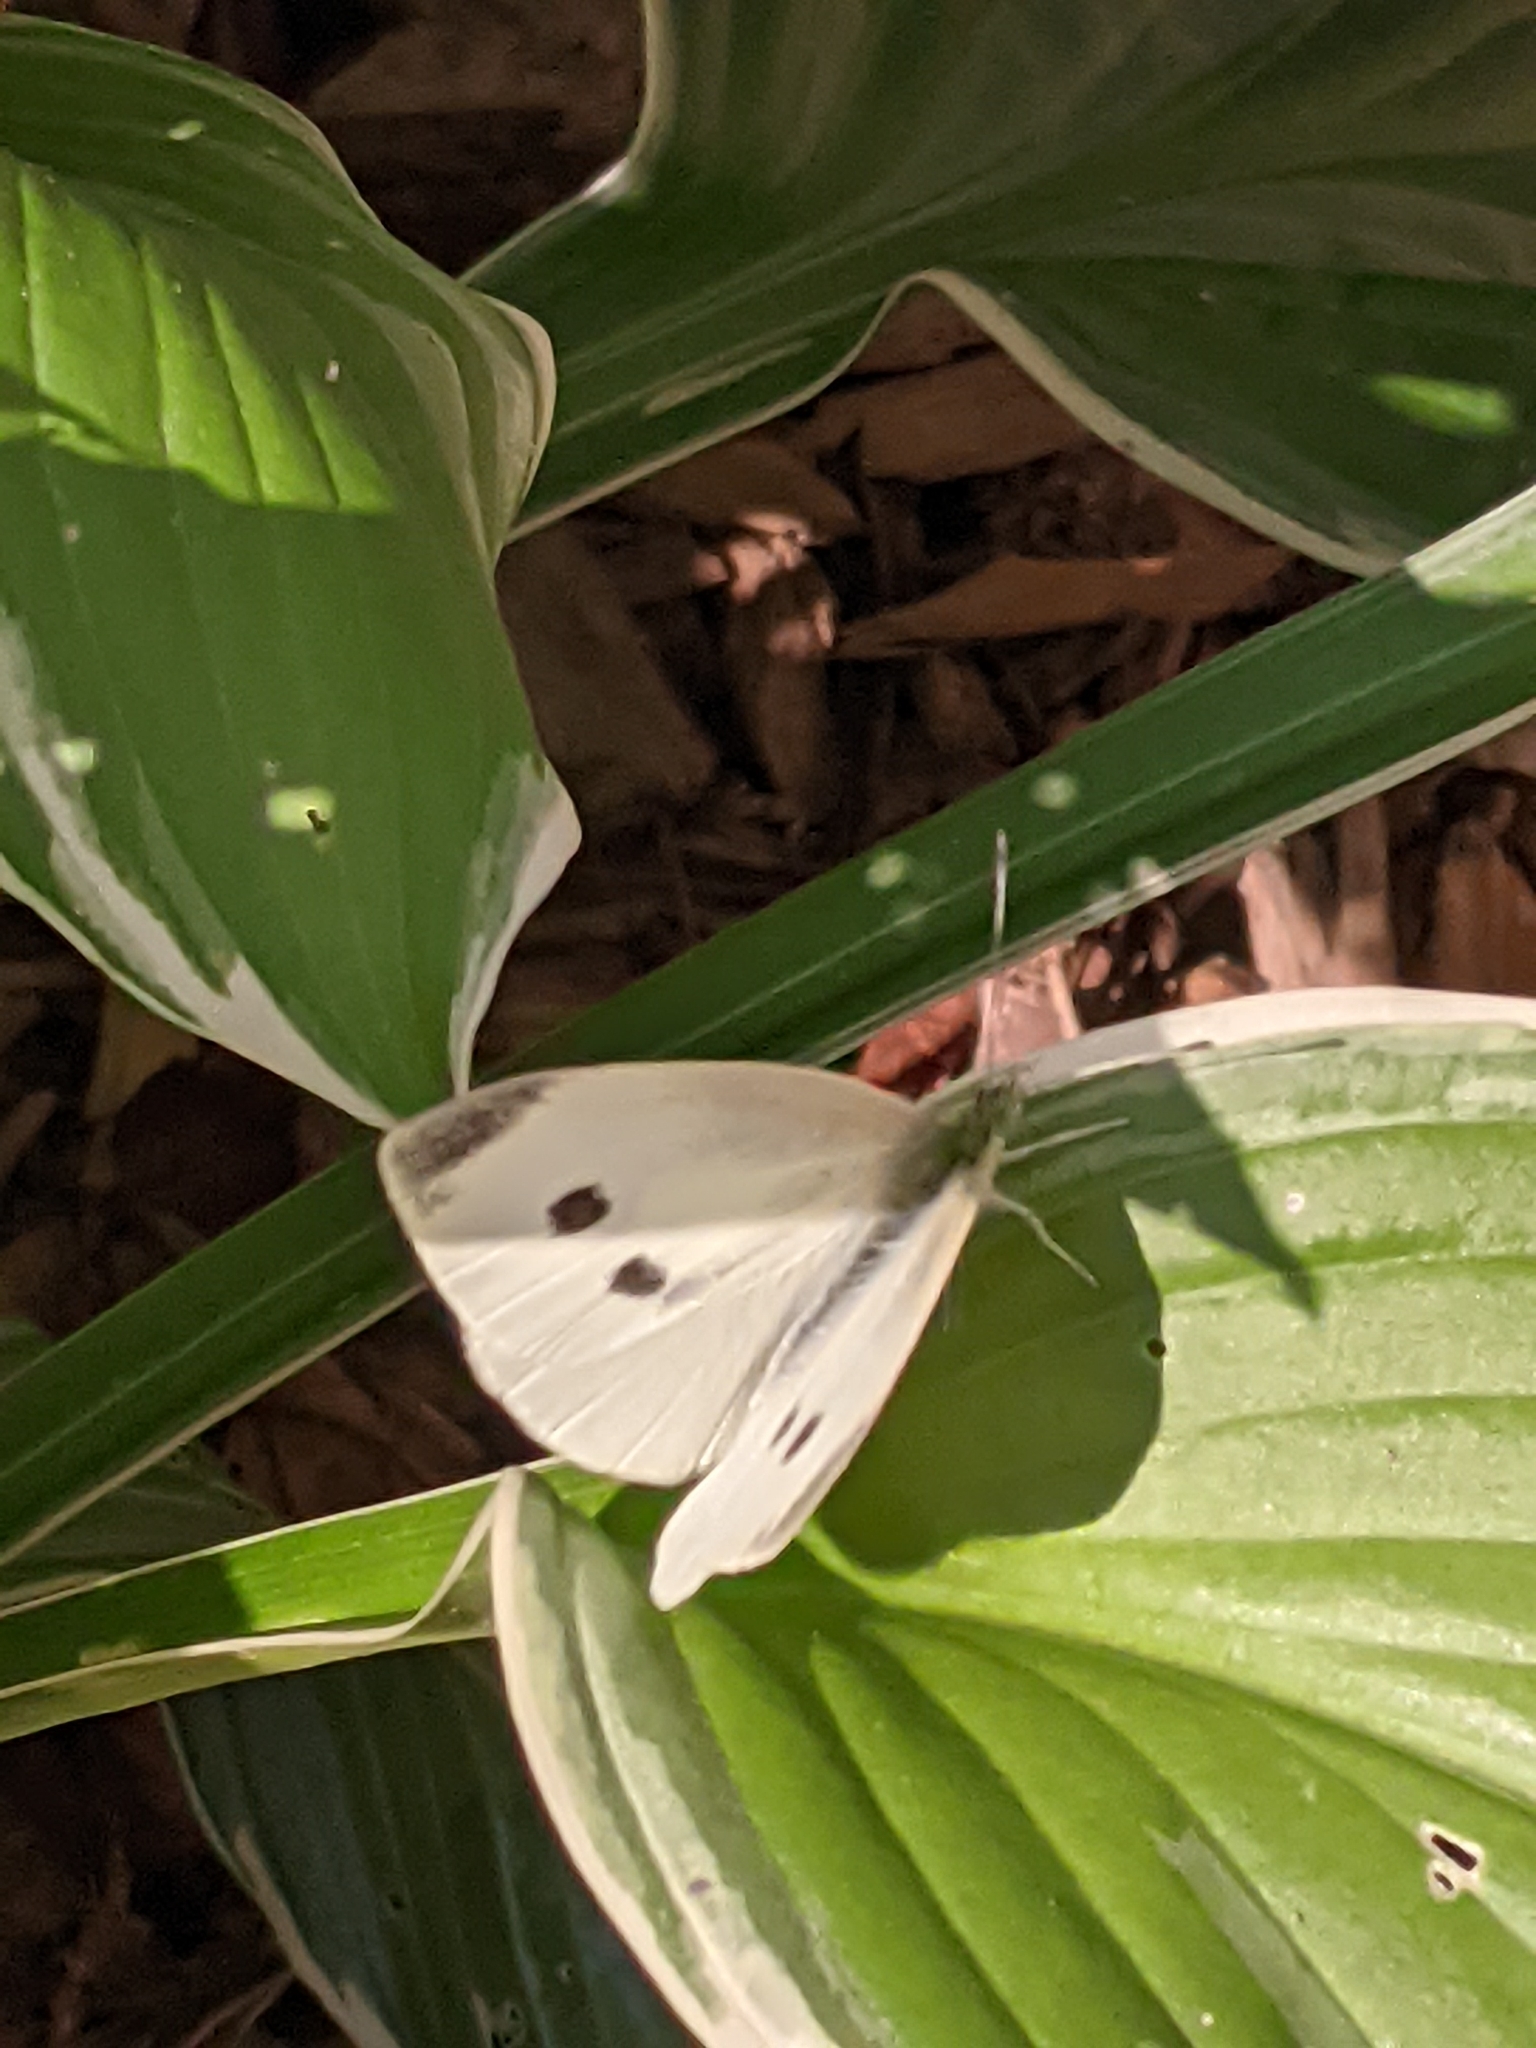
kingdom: Animalia
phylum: Arthropoda
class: Insecta
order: Lepidoptera
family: Pieridae
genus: Pieris
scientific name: Pieris rapae
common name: Small white
